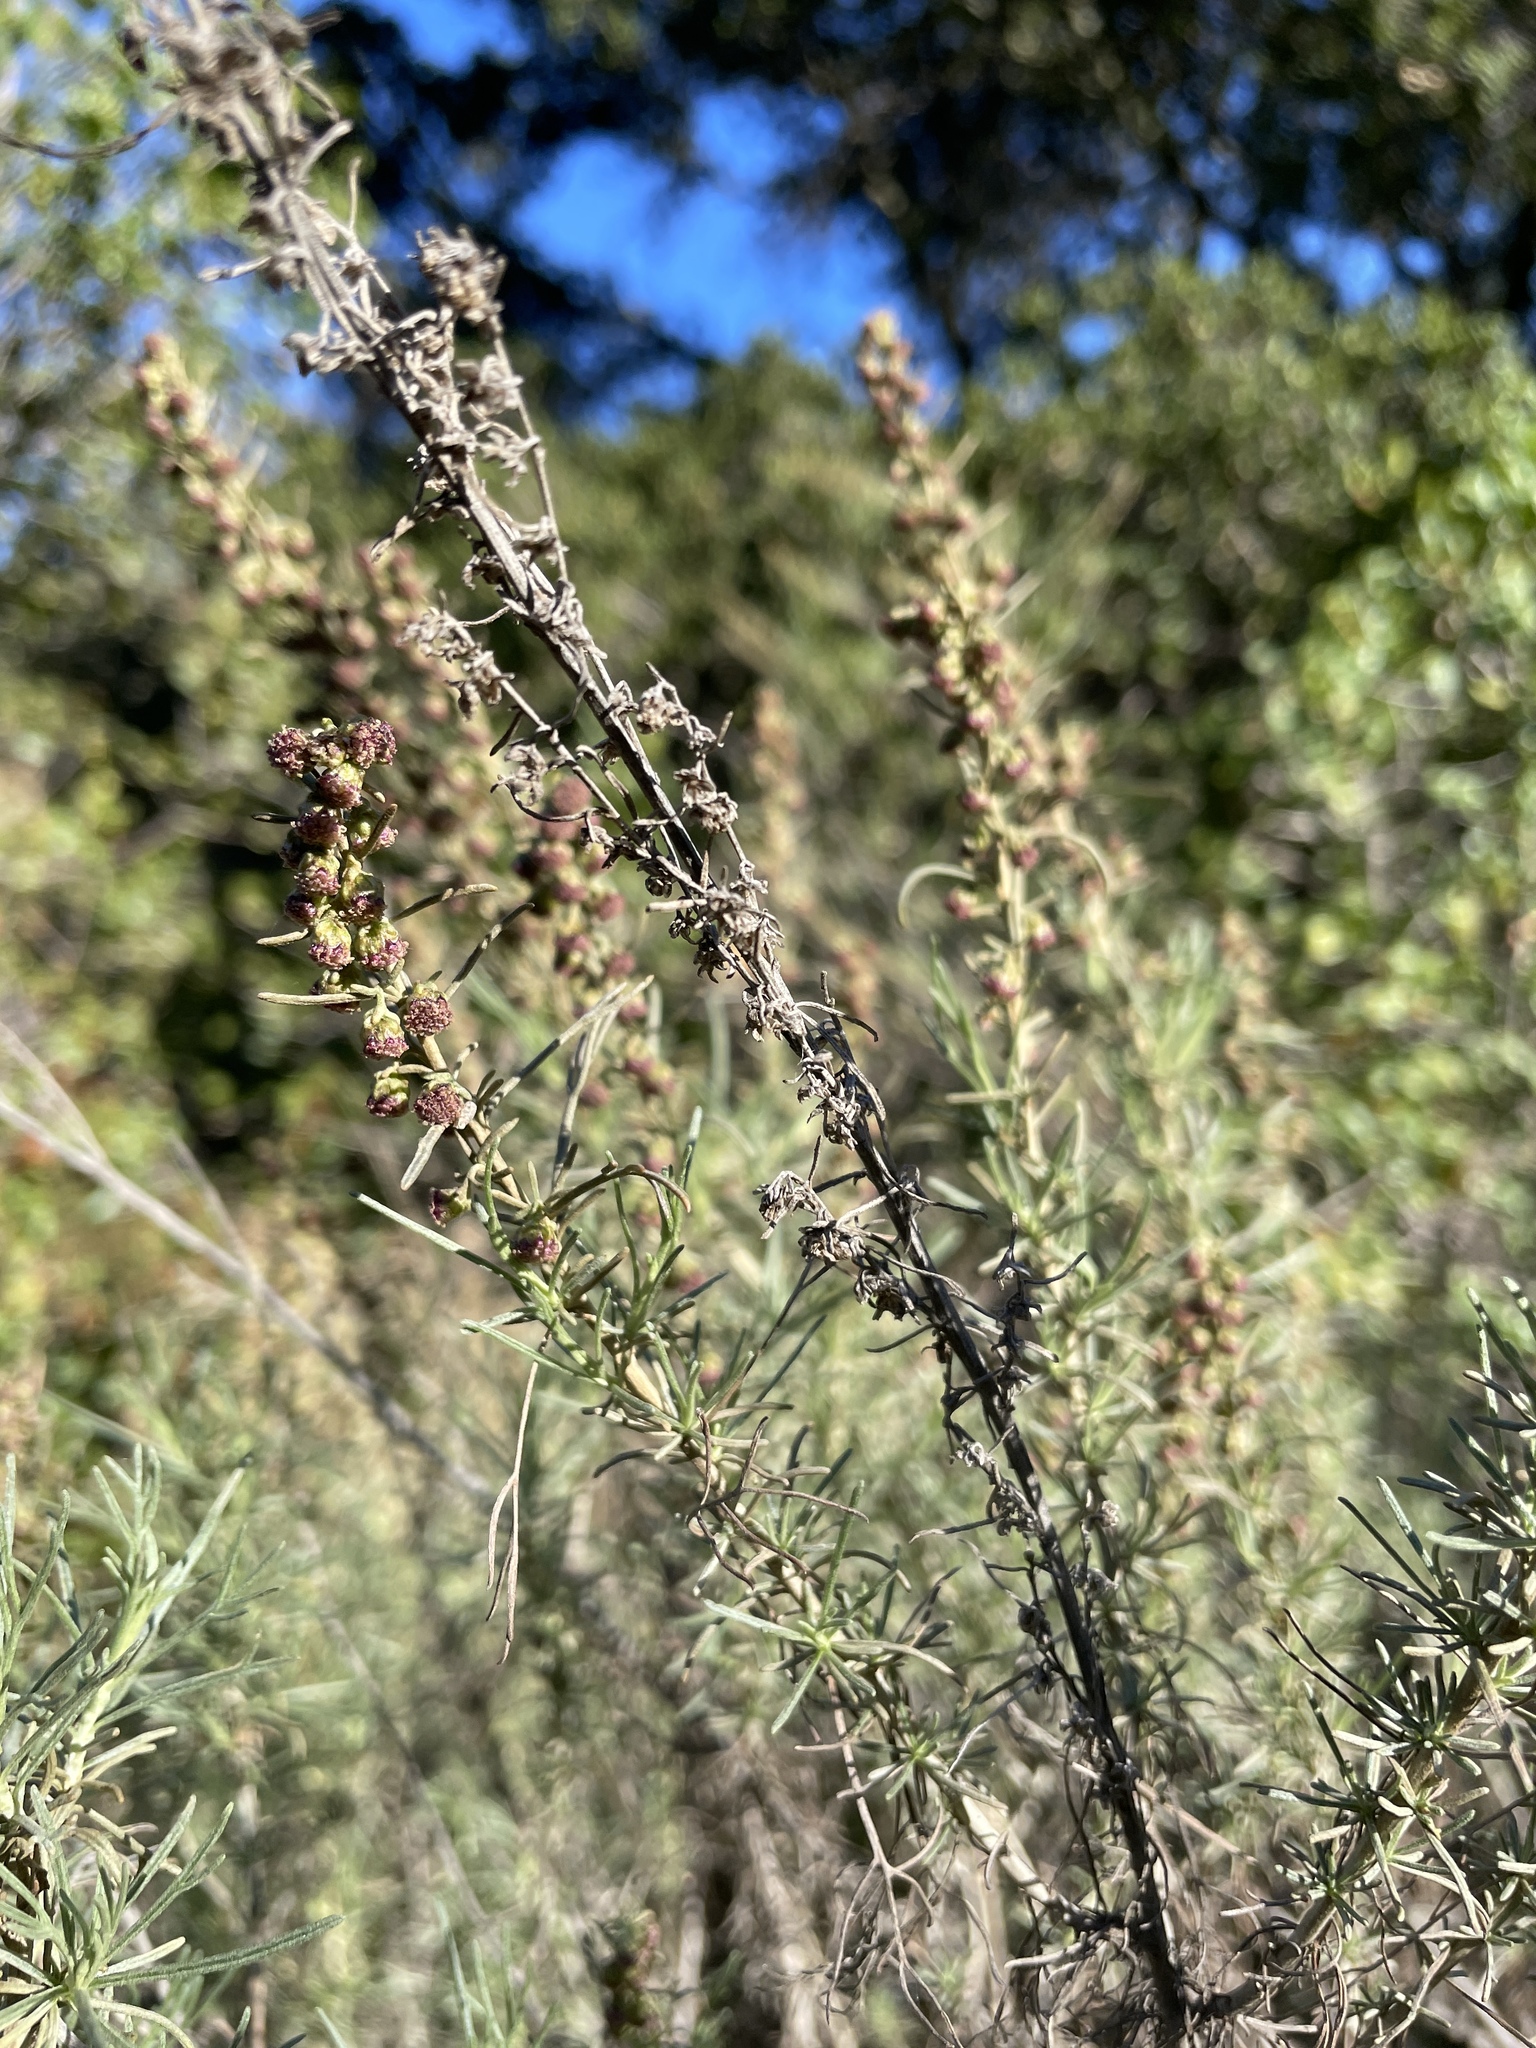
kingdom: Plantae
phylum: Tracheophyta
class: Magnoliopsida
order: Asterales
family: Asteraceae
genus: Artemisia
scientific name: Artemisia californica
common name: California sagebrush
